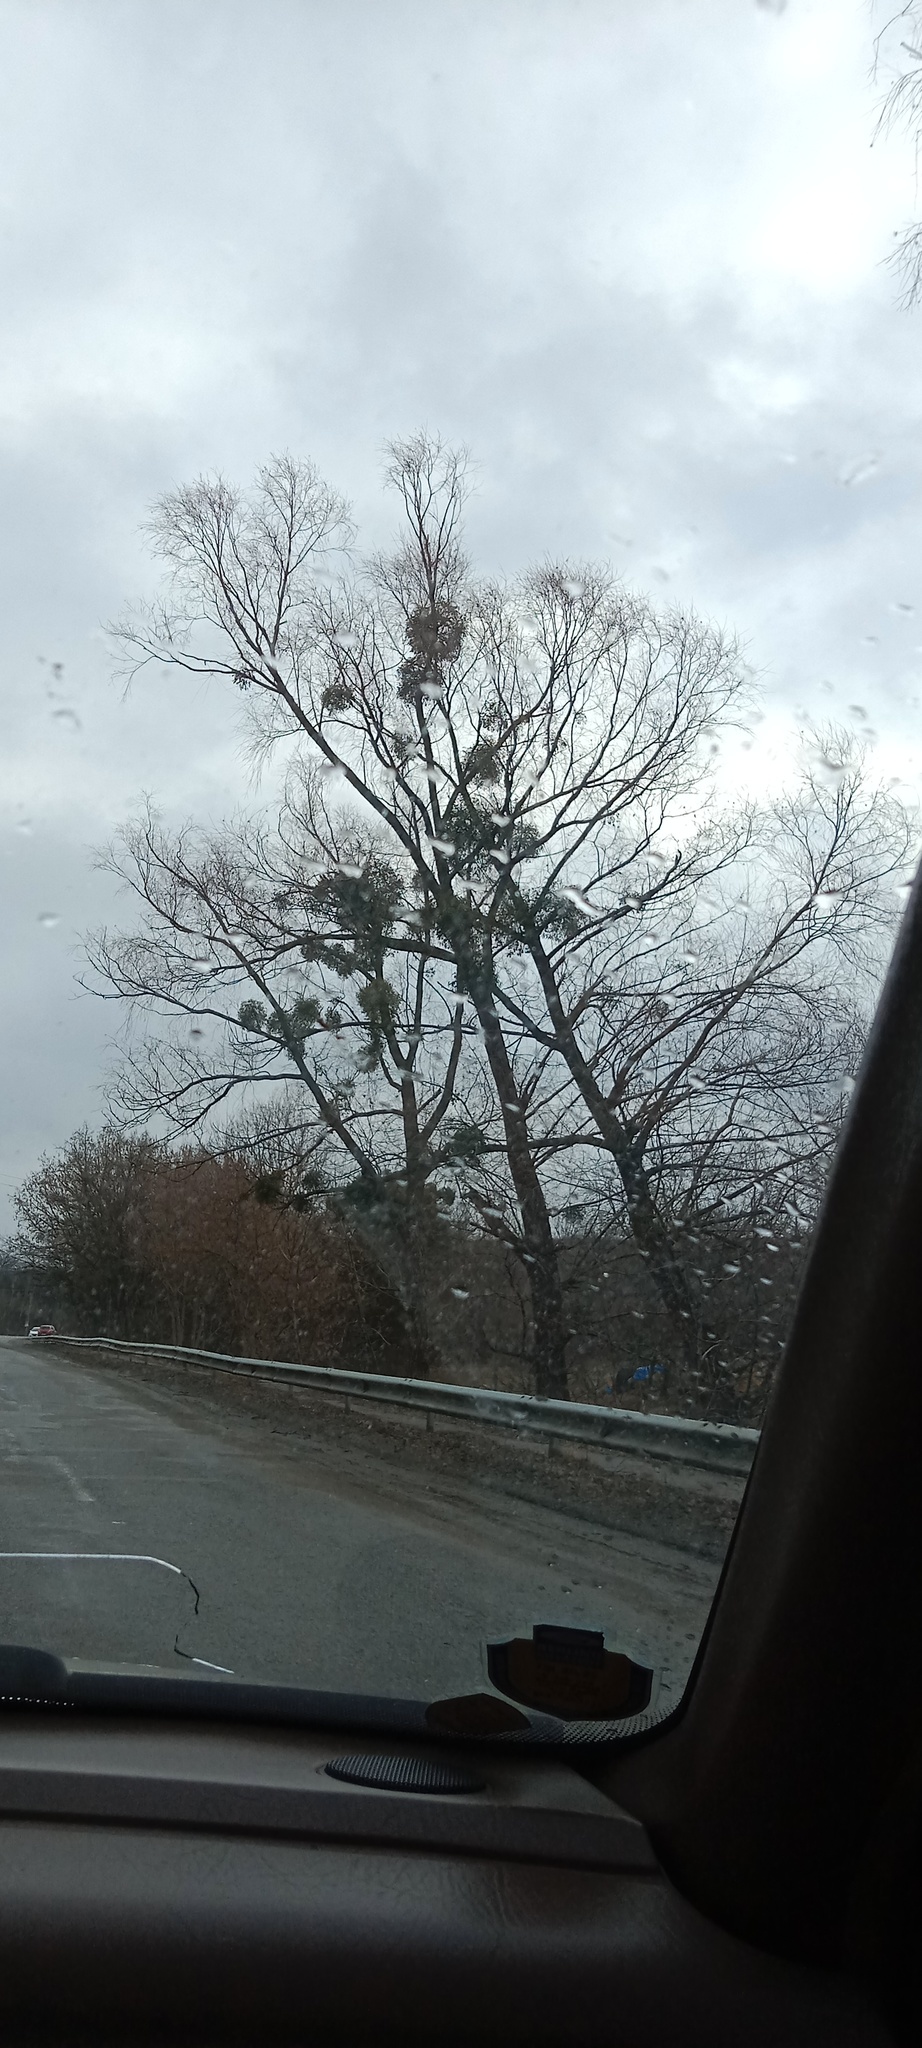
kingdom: Plantae
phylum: Tracheophyta
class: Magnoliopsida
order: Santalales
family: Viscaceae
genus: Viscum
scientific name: Viscum album
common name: Mistletoe
